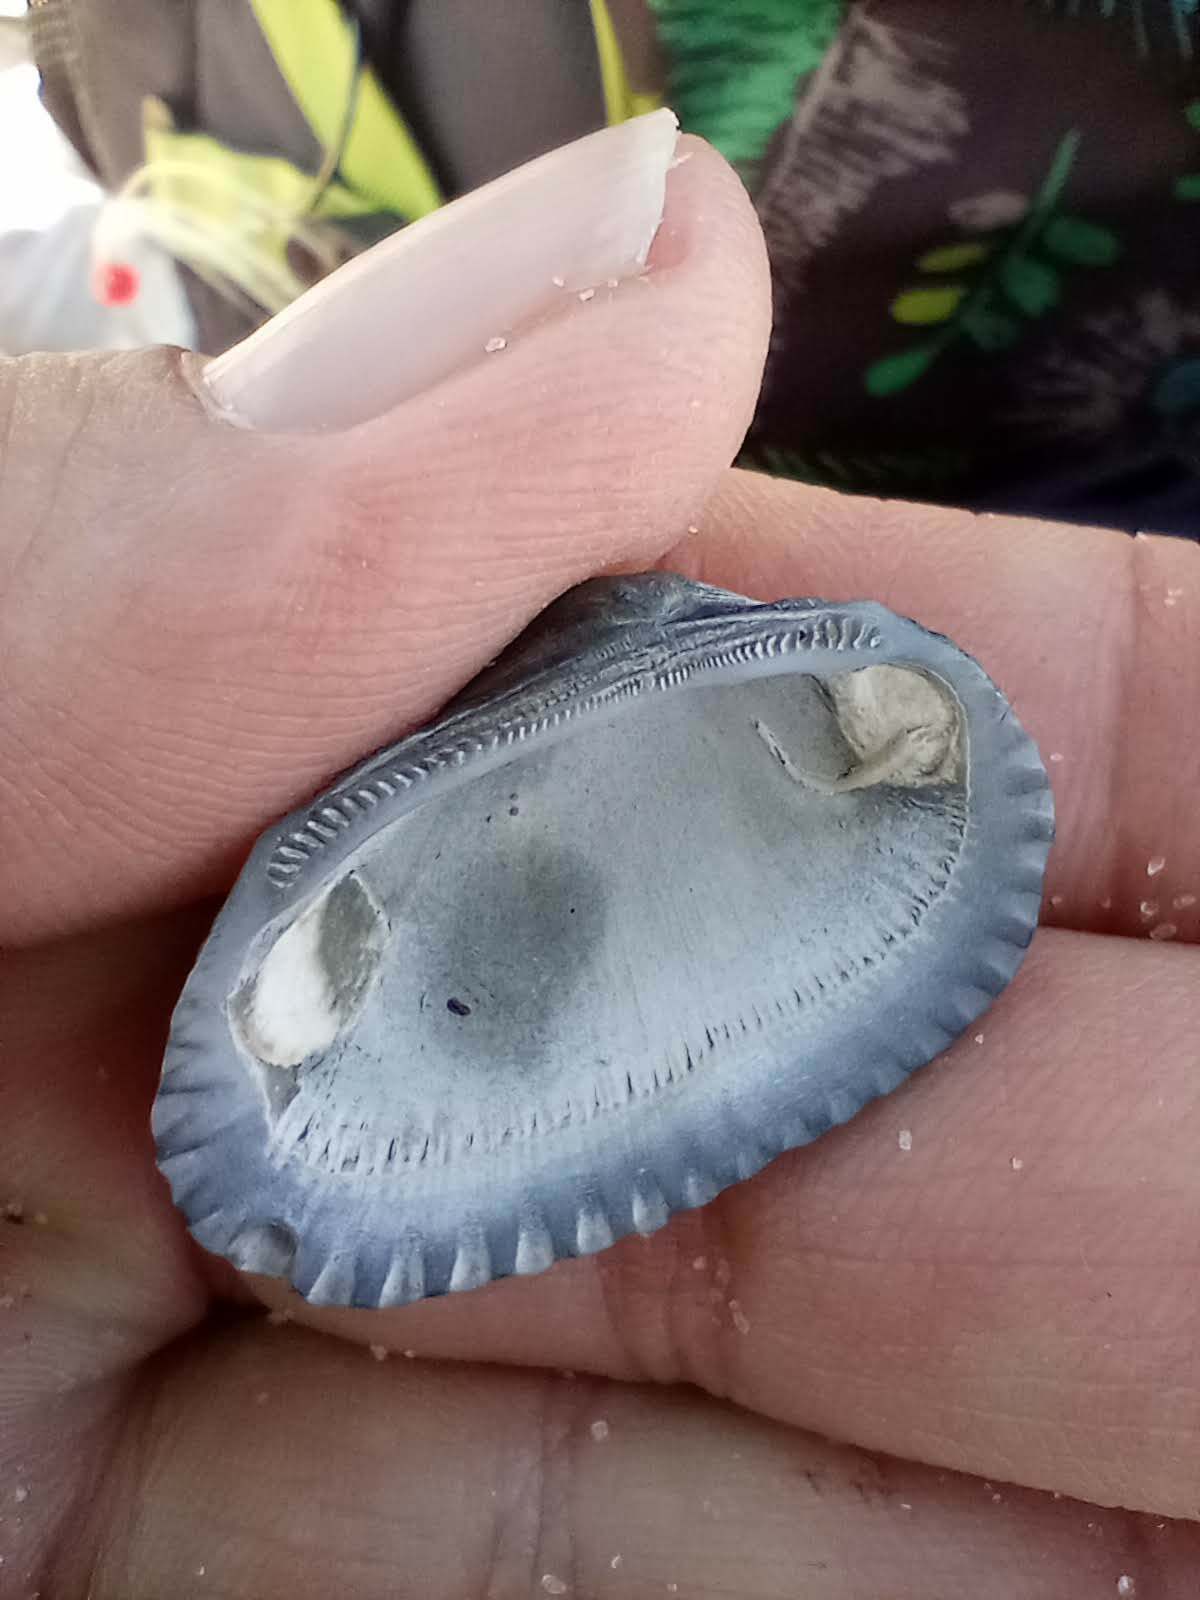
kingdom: Animalia
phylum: Mollusca
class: Bivalvia
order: Arcida
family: Arcidae
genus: Anadara
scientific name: Anadara transversa
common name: Transverse ark
